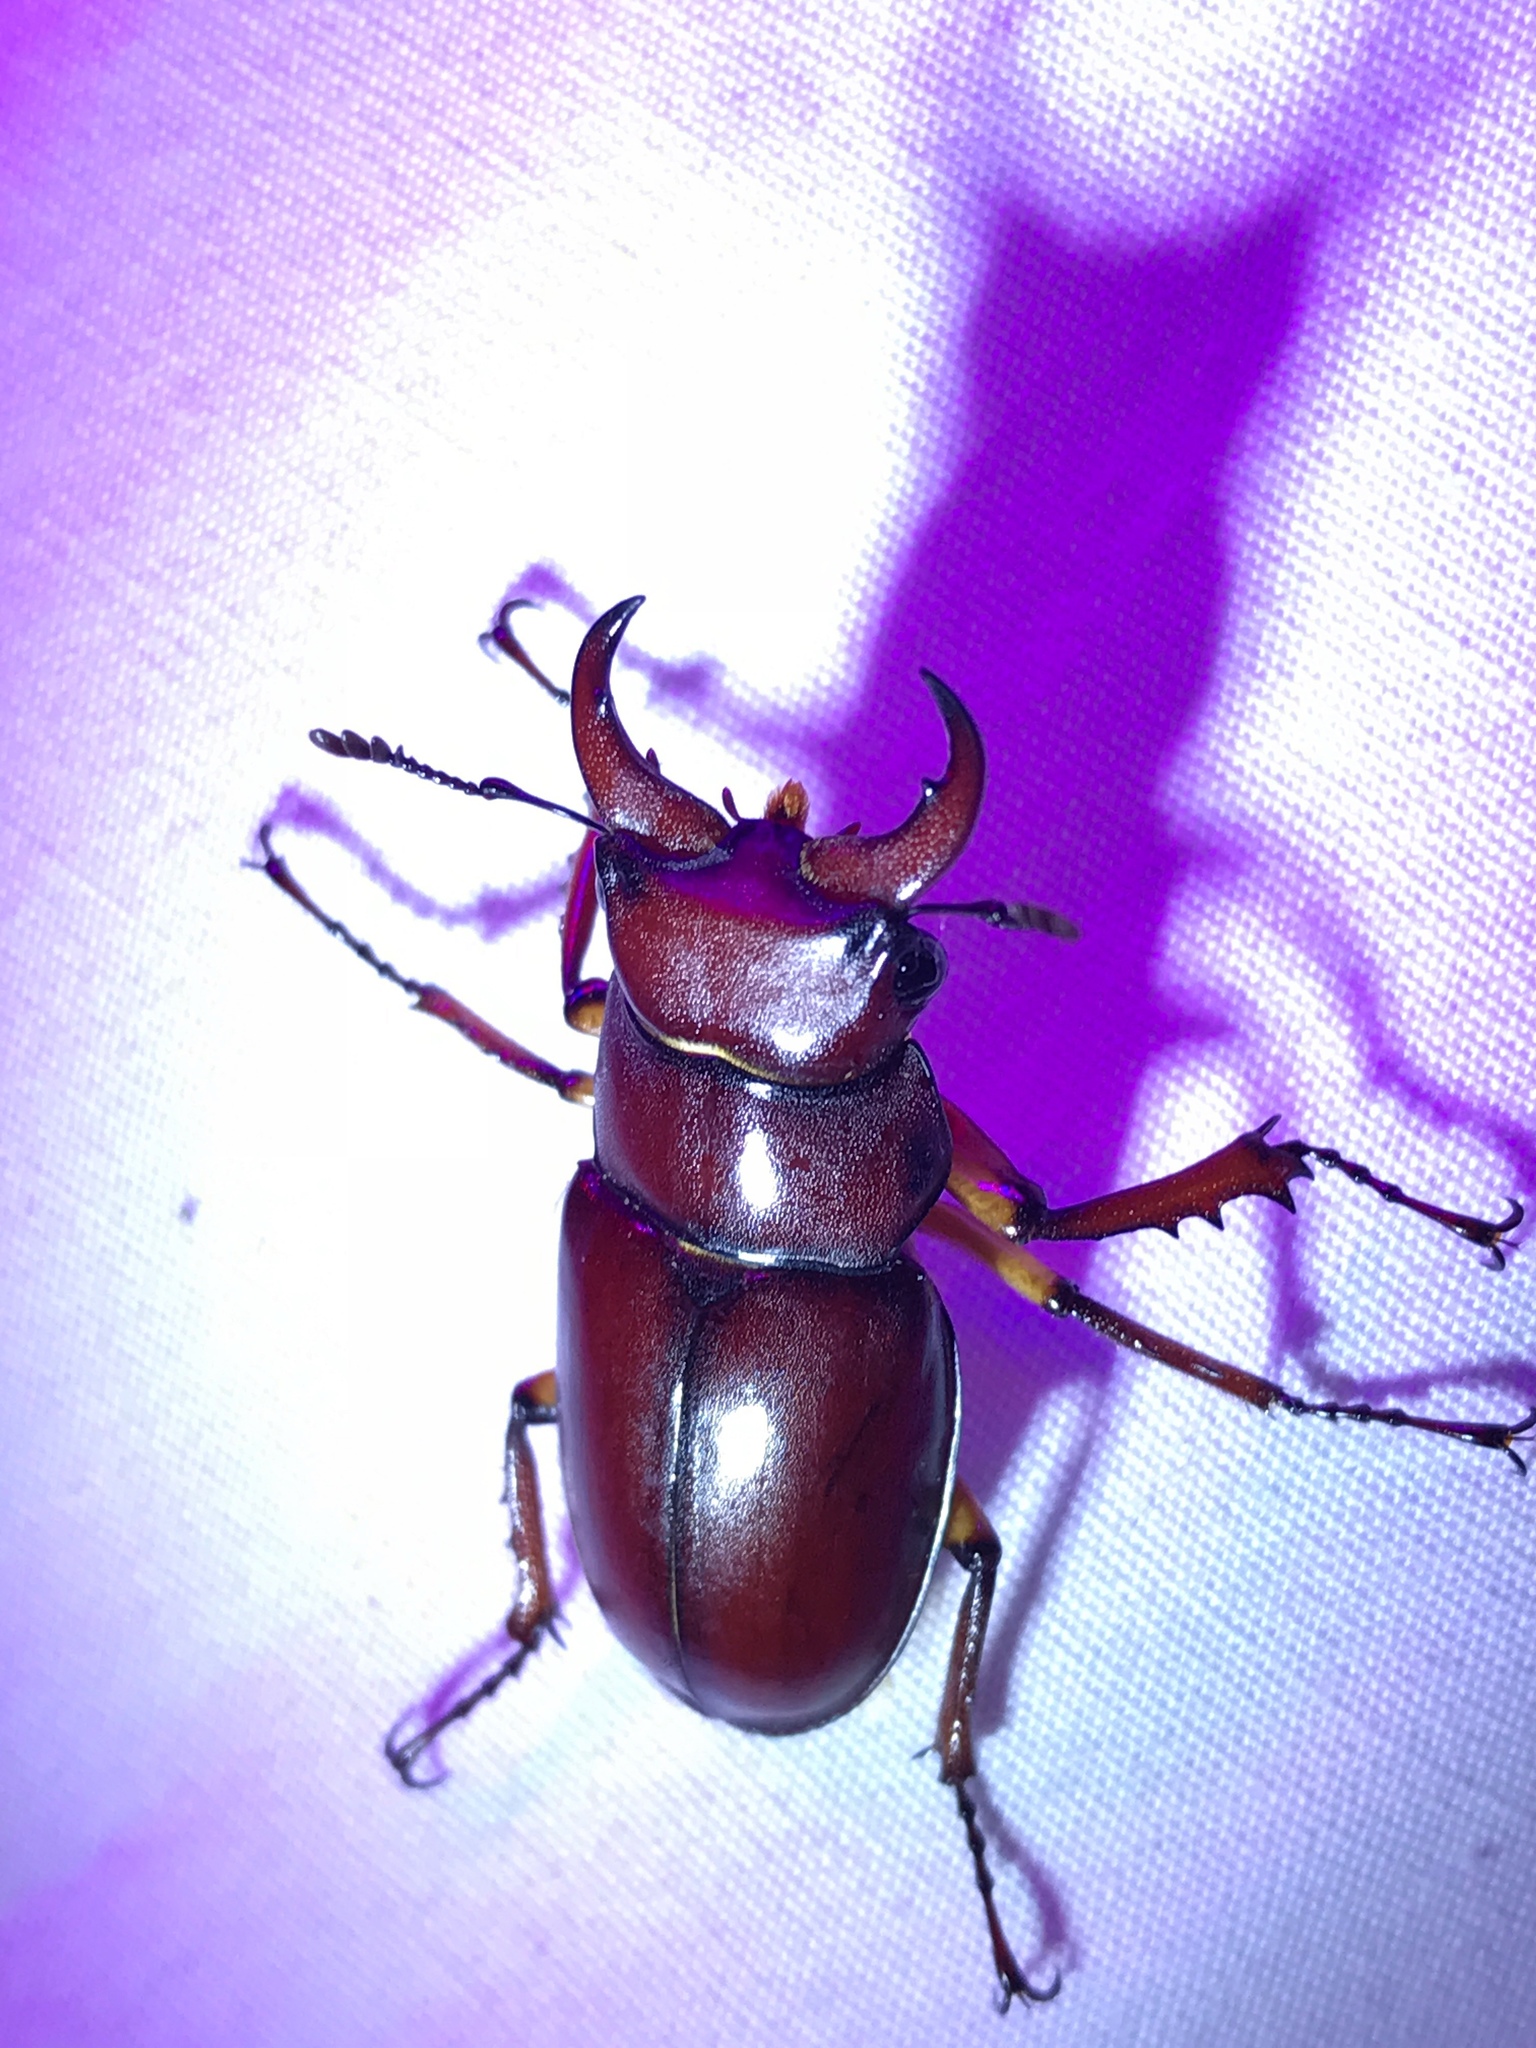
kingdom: Animalia
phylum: Arthropoda
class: Insecta
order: Coleoptera
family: Lucanidae
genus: Lucanus
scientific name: Lucanus capreolus
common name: Stag beetle
